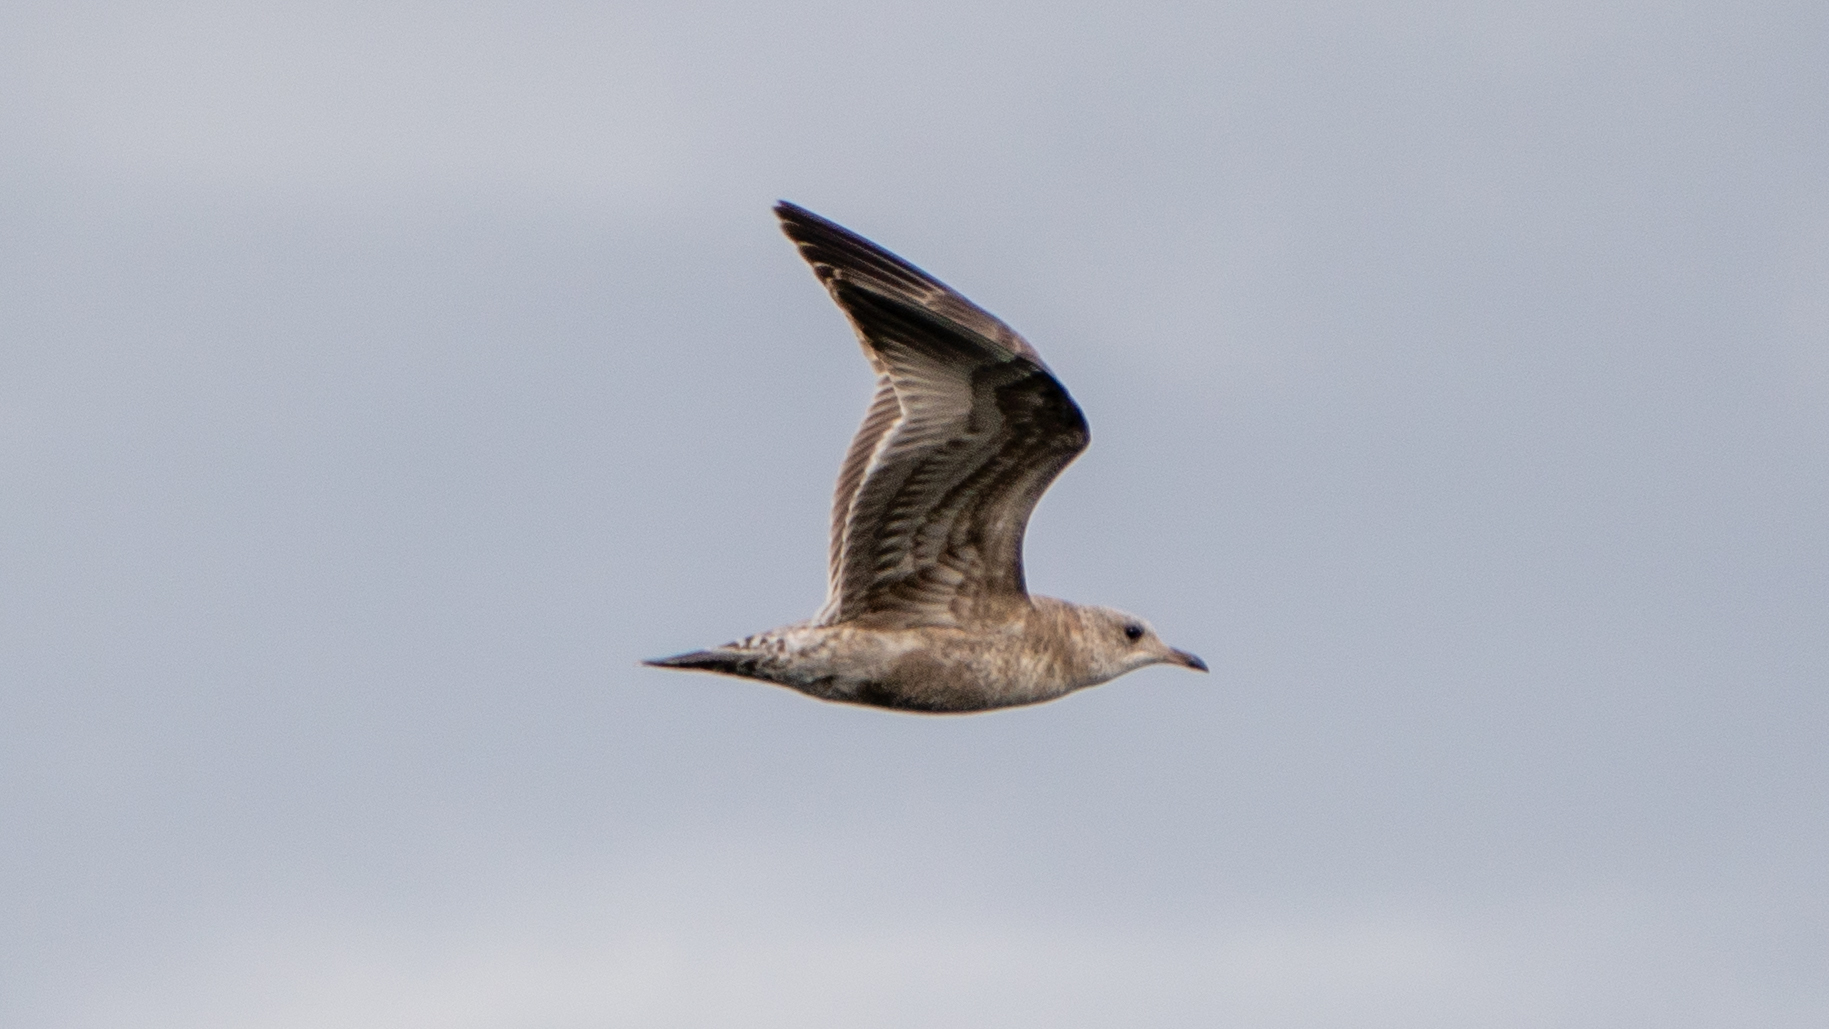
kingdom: Animalia
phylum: Chordata
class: Aves
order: Charadriiformes
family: Laridae
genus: Larus
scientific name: Larus
